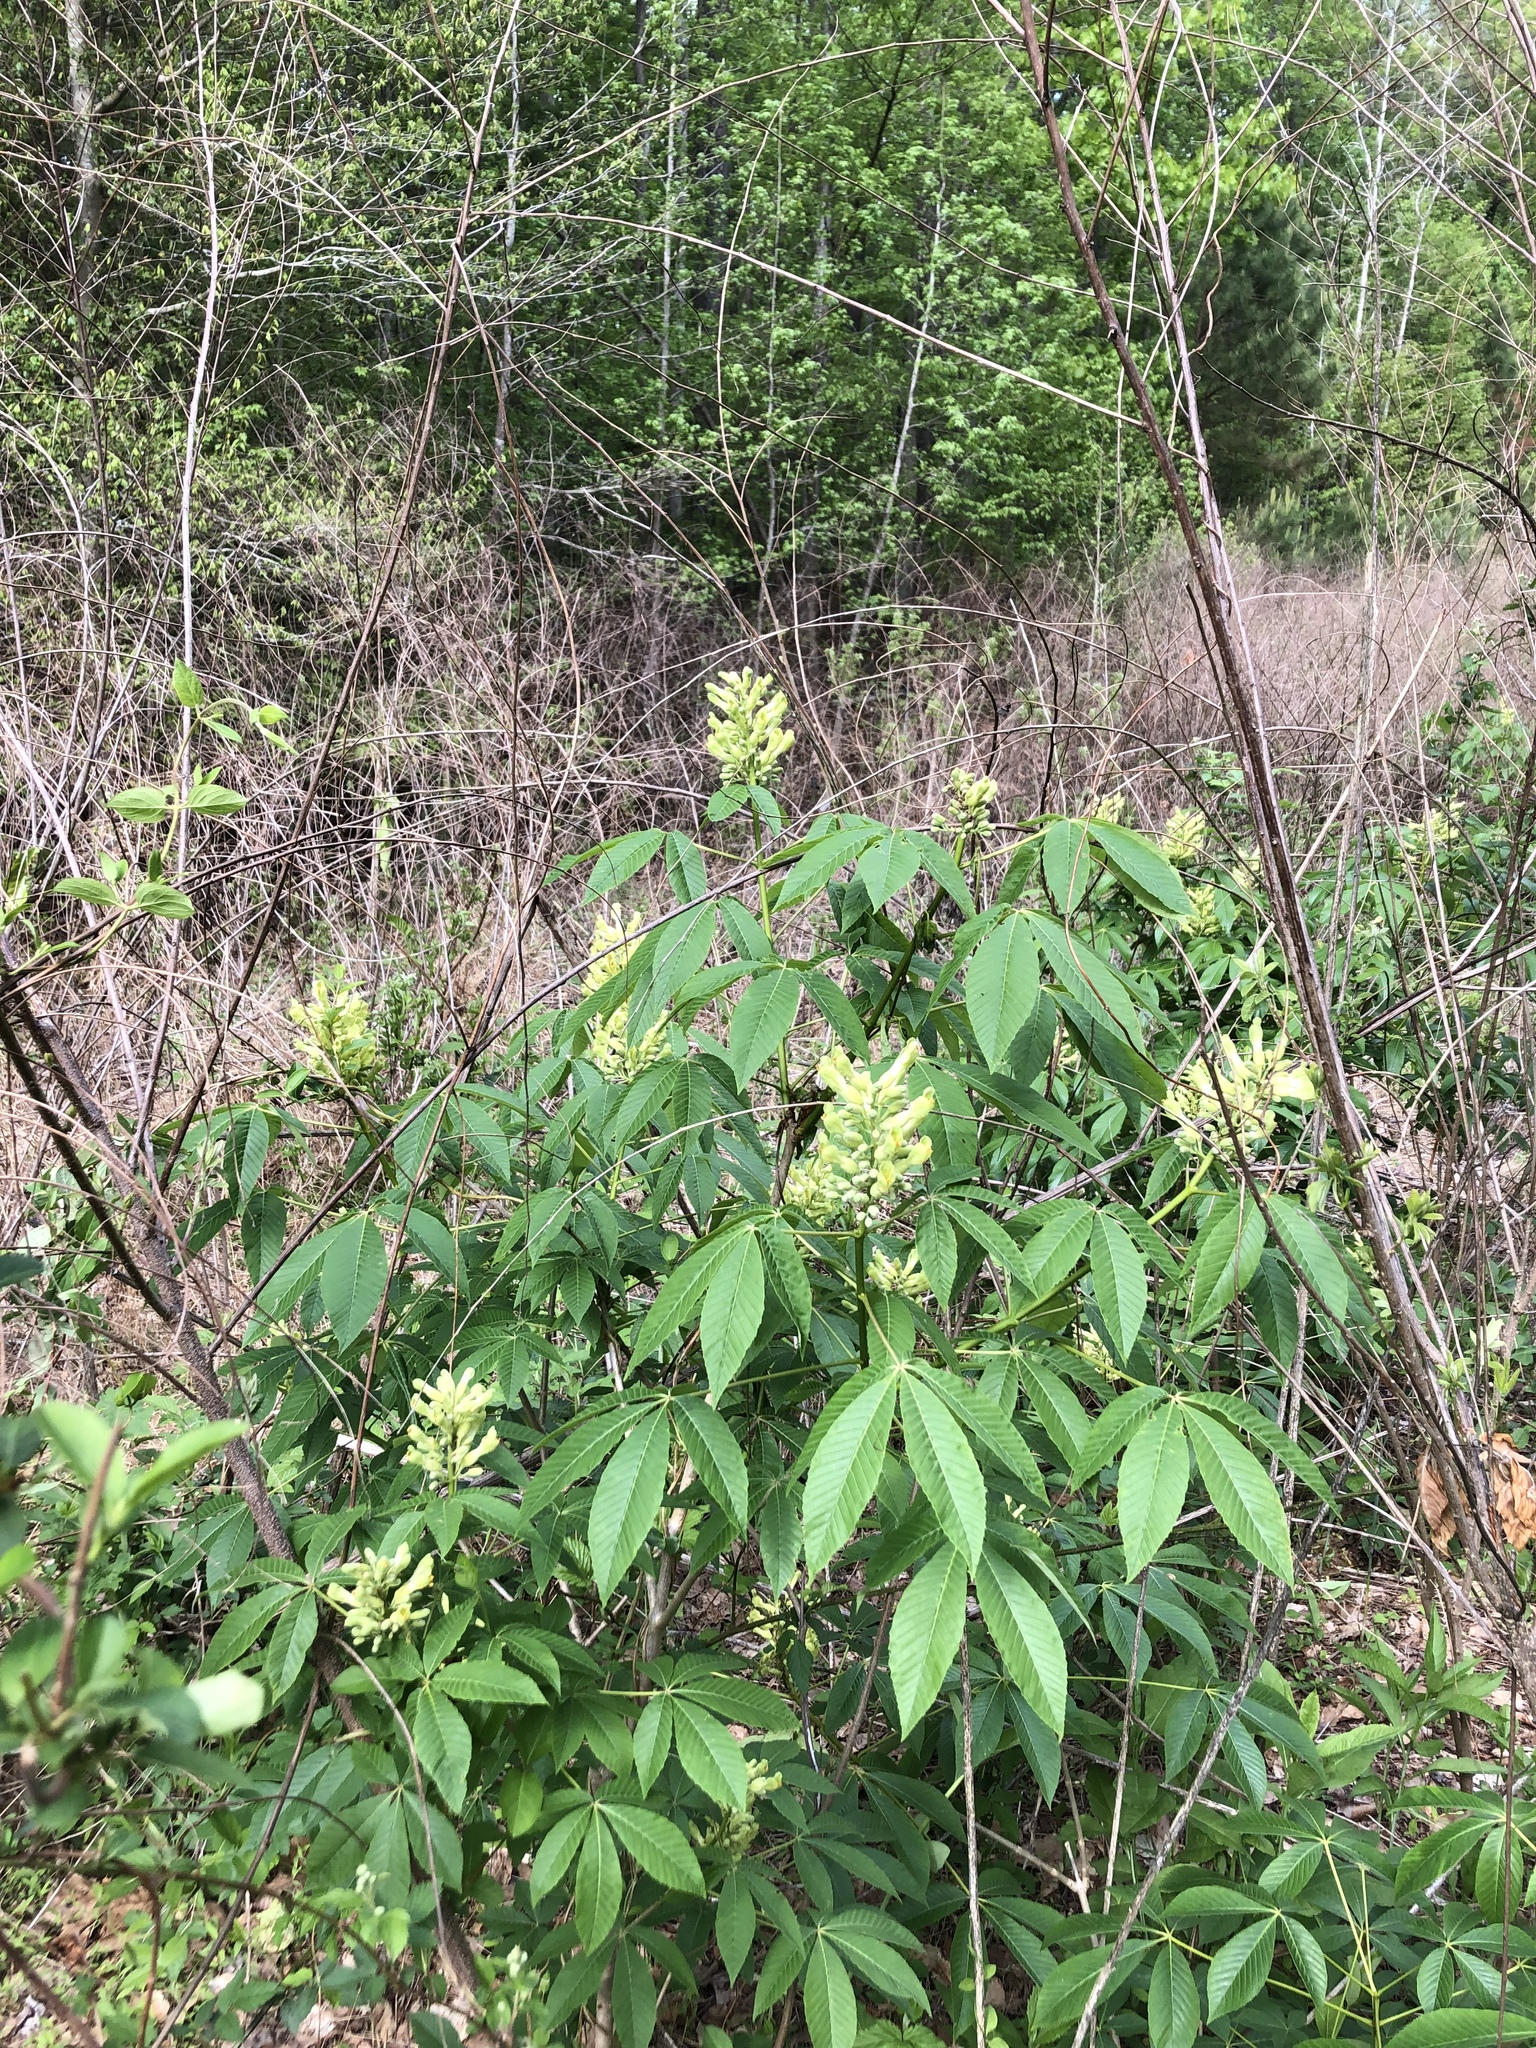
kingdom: Plantae
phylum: Tracheophyta
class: Magnoliopsida
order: Sapindales
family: Sapindaceae
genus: Aesculus
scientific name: Aesculus sylvatica
